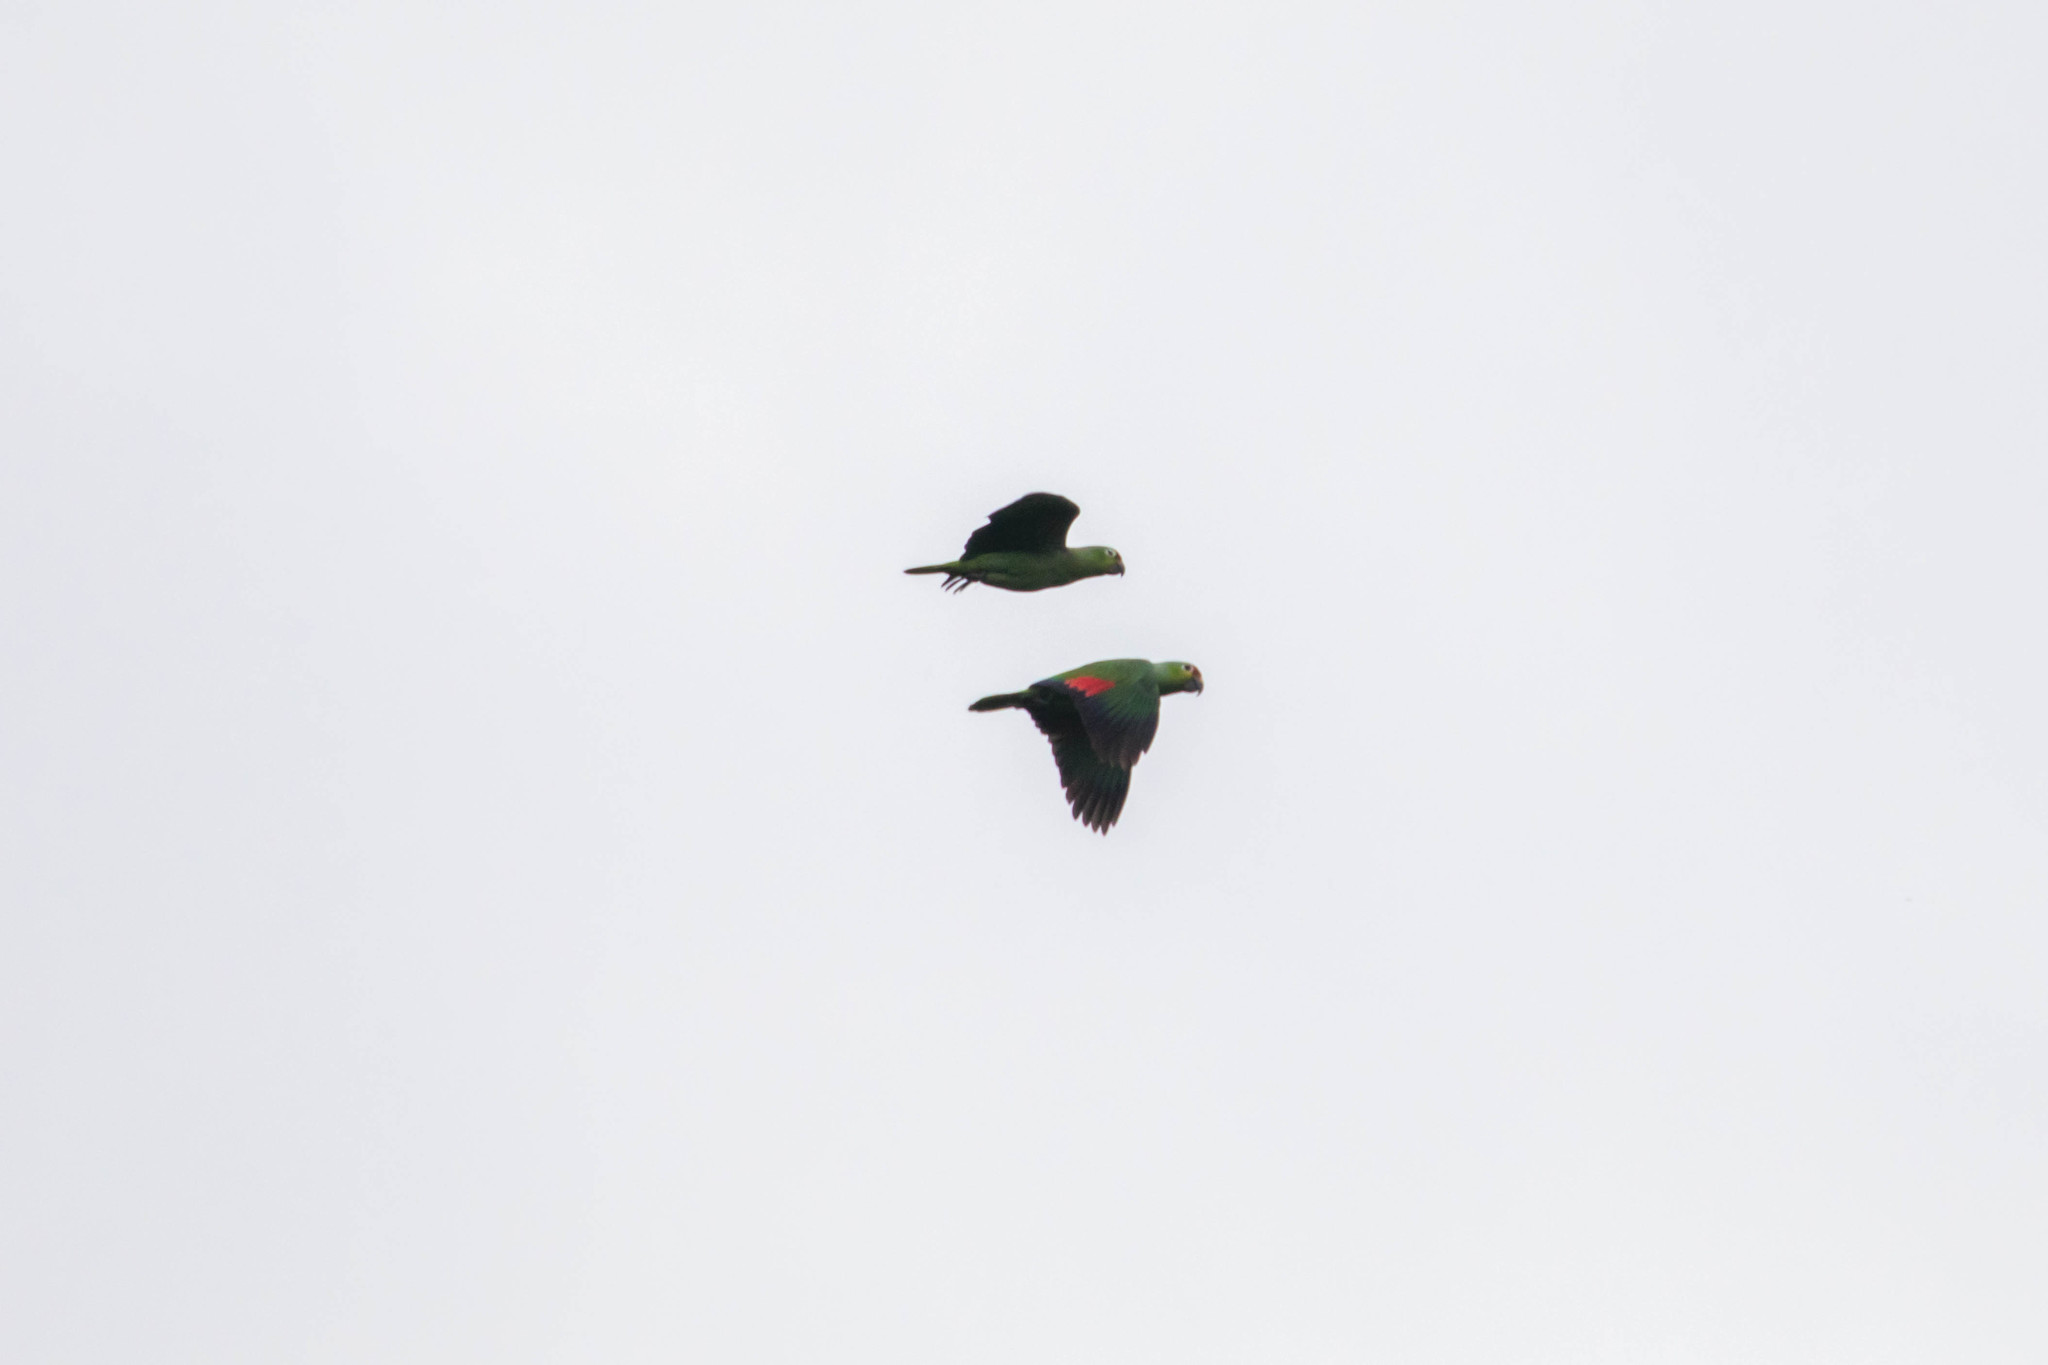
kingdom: Animalia
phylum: Chordata
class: Aves
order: Psittaciformes
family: Psittacidae
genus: Amazona
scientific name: Amazona autumnalis
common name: Red-lored amazon
